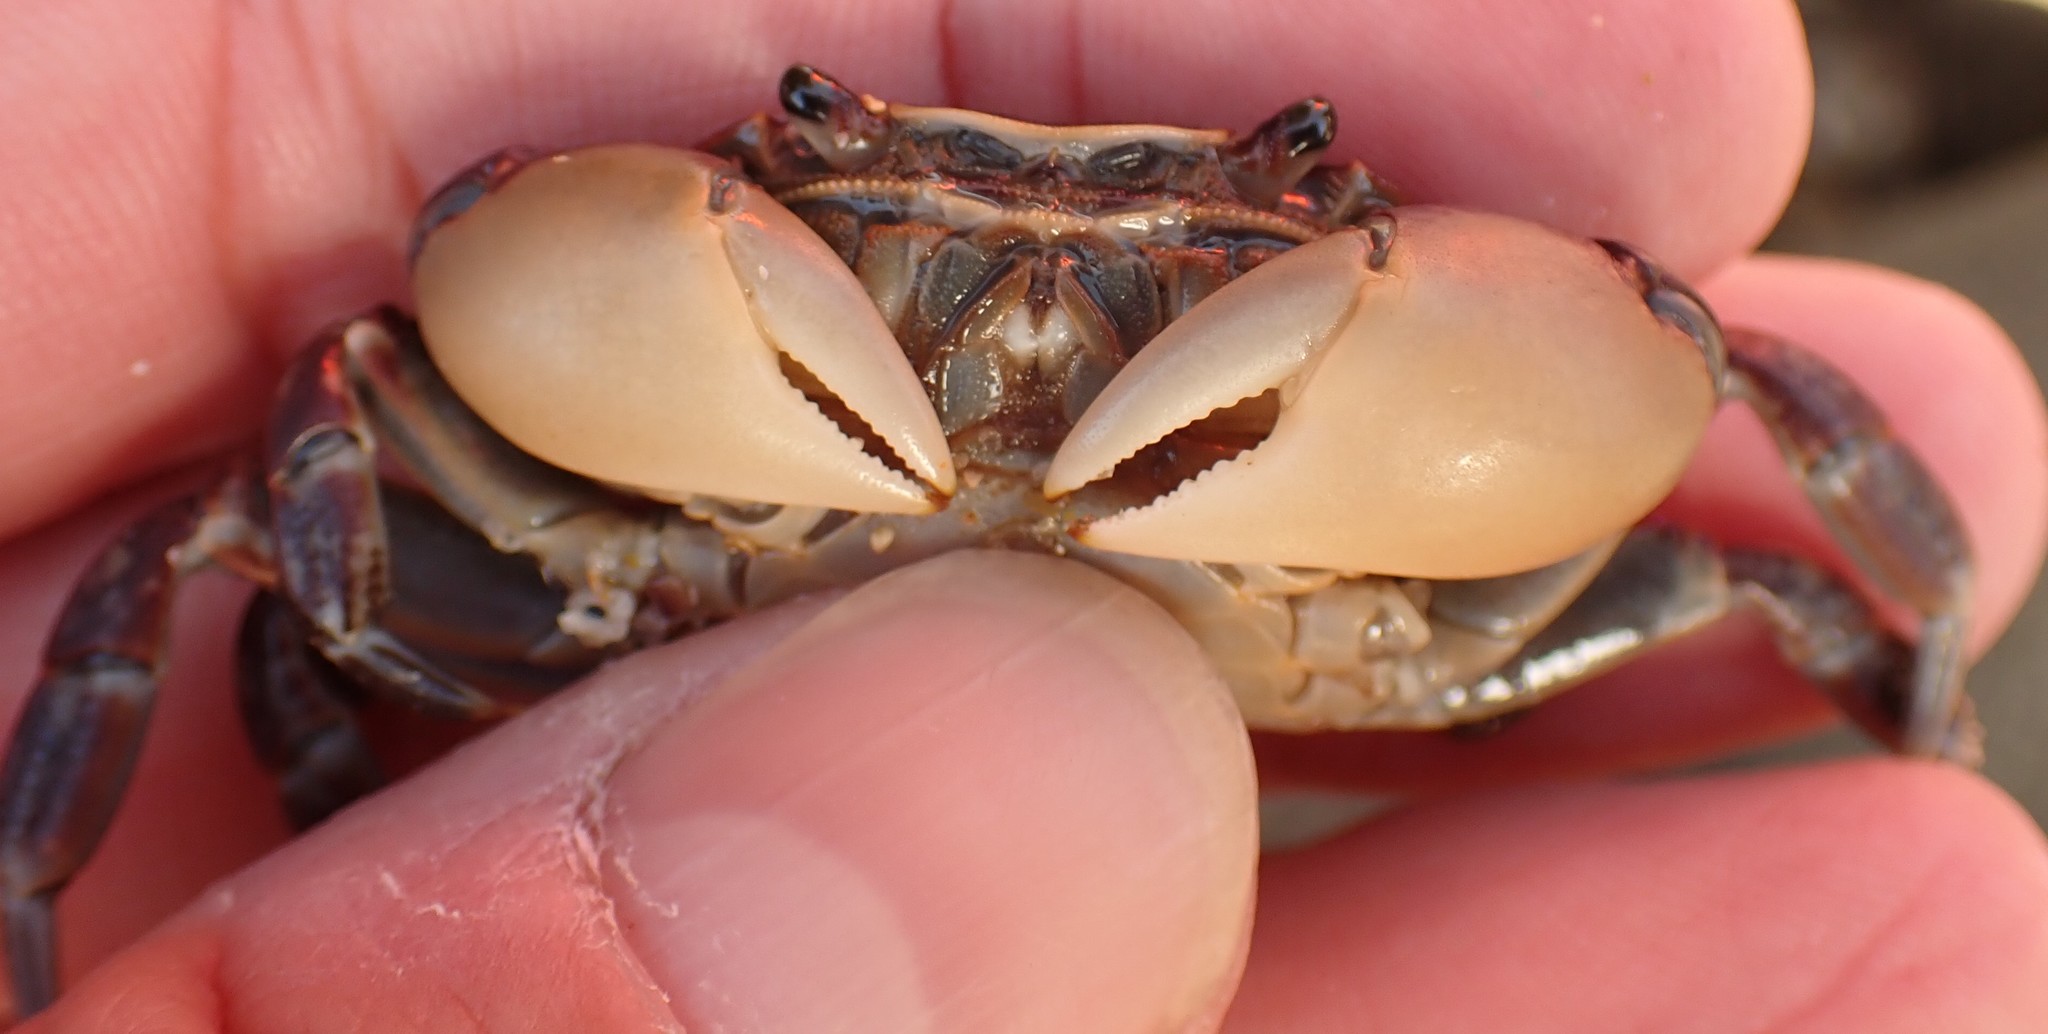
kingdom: Animalia
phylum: Arthropoda
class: Malacostraca
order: Decapoda
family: Varunidae
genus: Cyclograpsus
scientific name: Cyclograpsus granulosus
